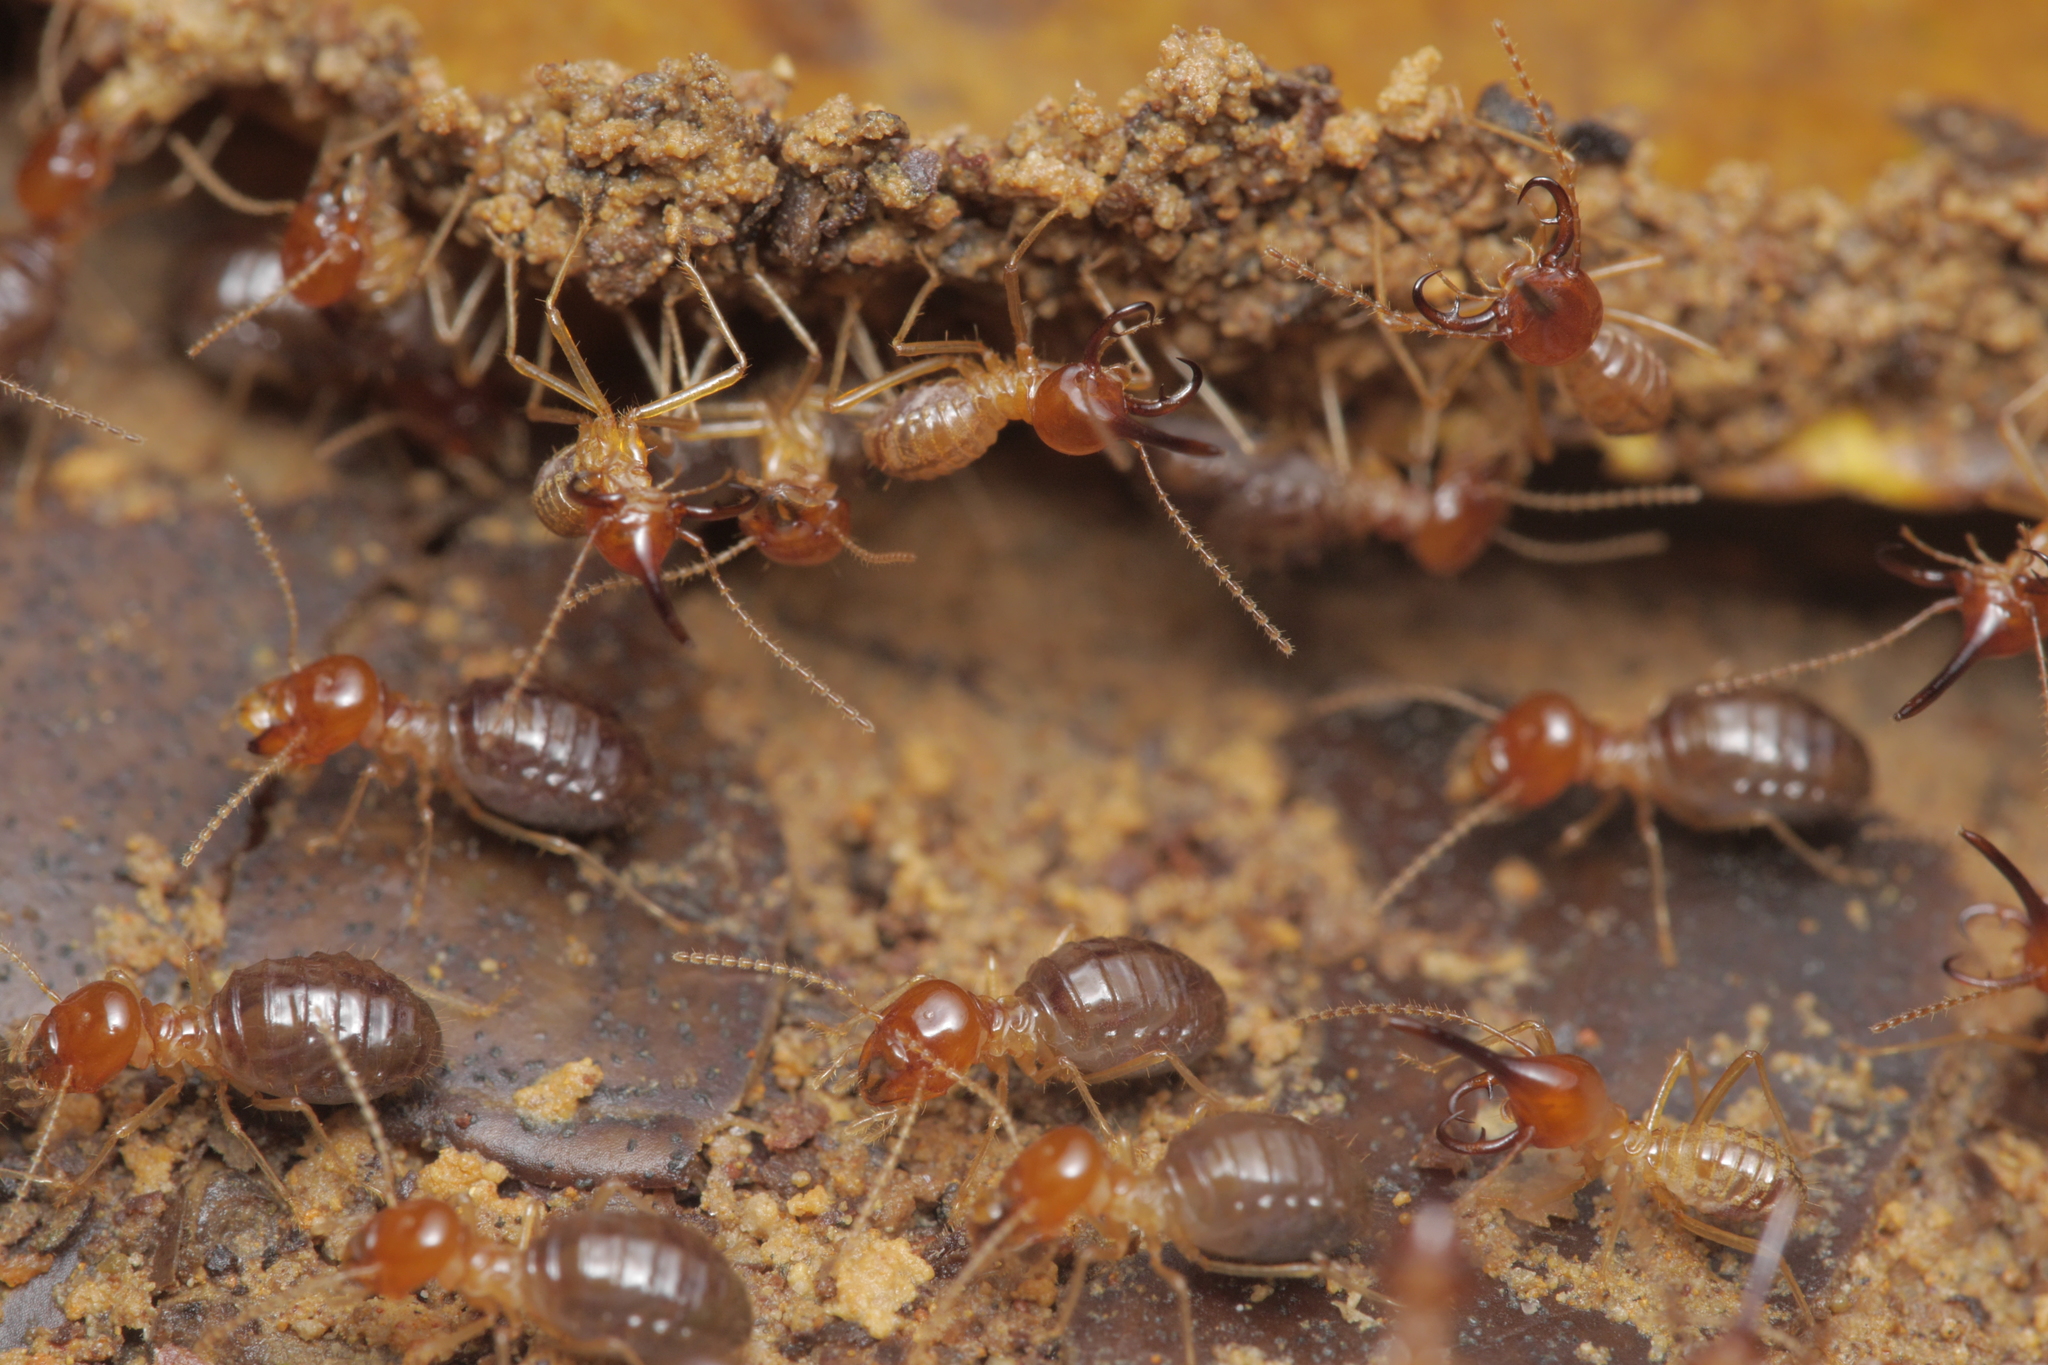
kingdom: Animalia
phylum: Arthropoda
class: Insecta
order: Blattodea
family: Termitidae
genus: Rhynchotermes
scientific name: Rhynchotermes perarmatus
